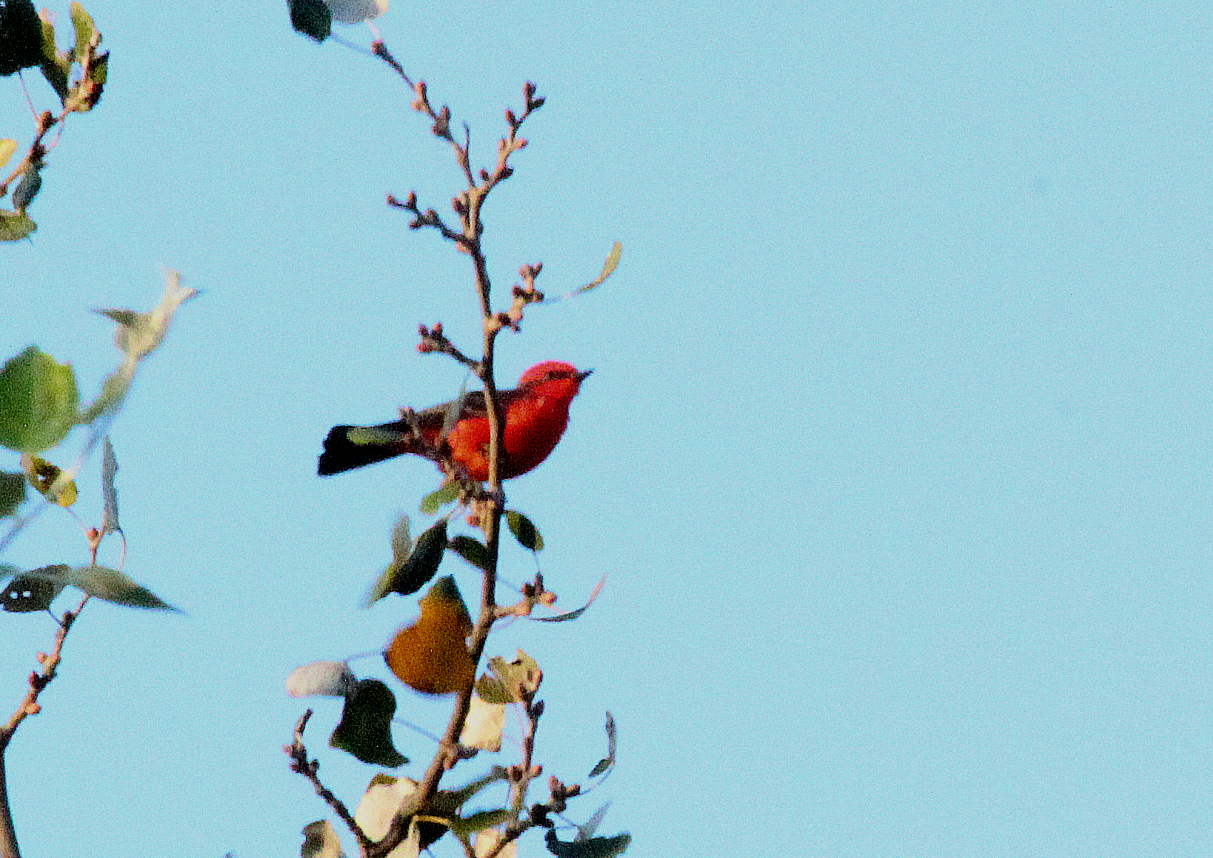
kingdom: Animalia
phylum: Chordata
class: Aves
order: Passeriformes
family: Tyrannidae
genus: Pyrocephalus
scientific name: Pyrocephalus rubinus
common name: Vermilion flycatcher
